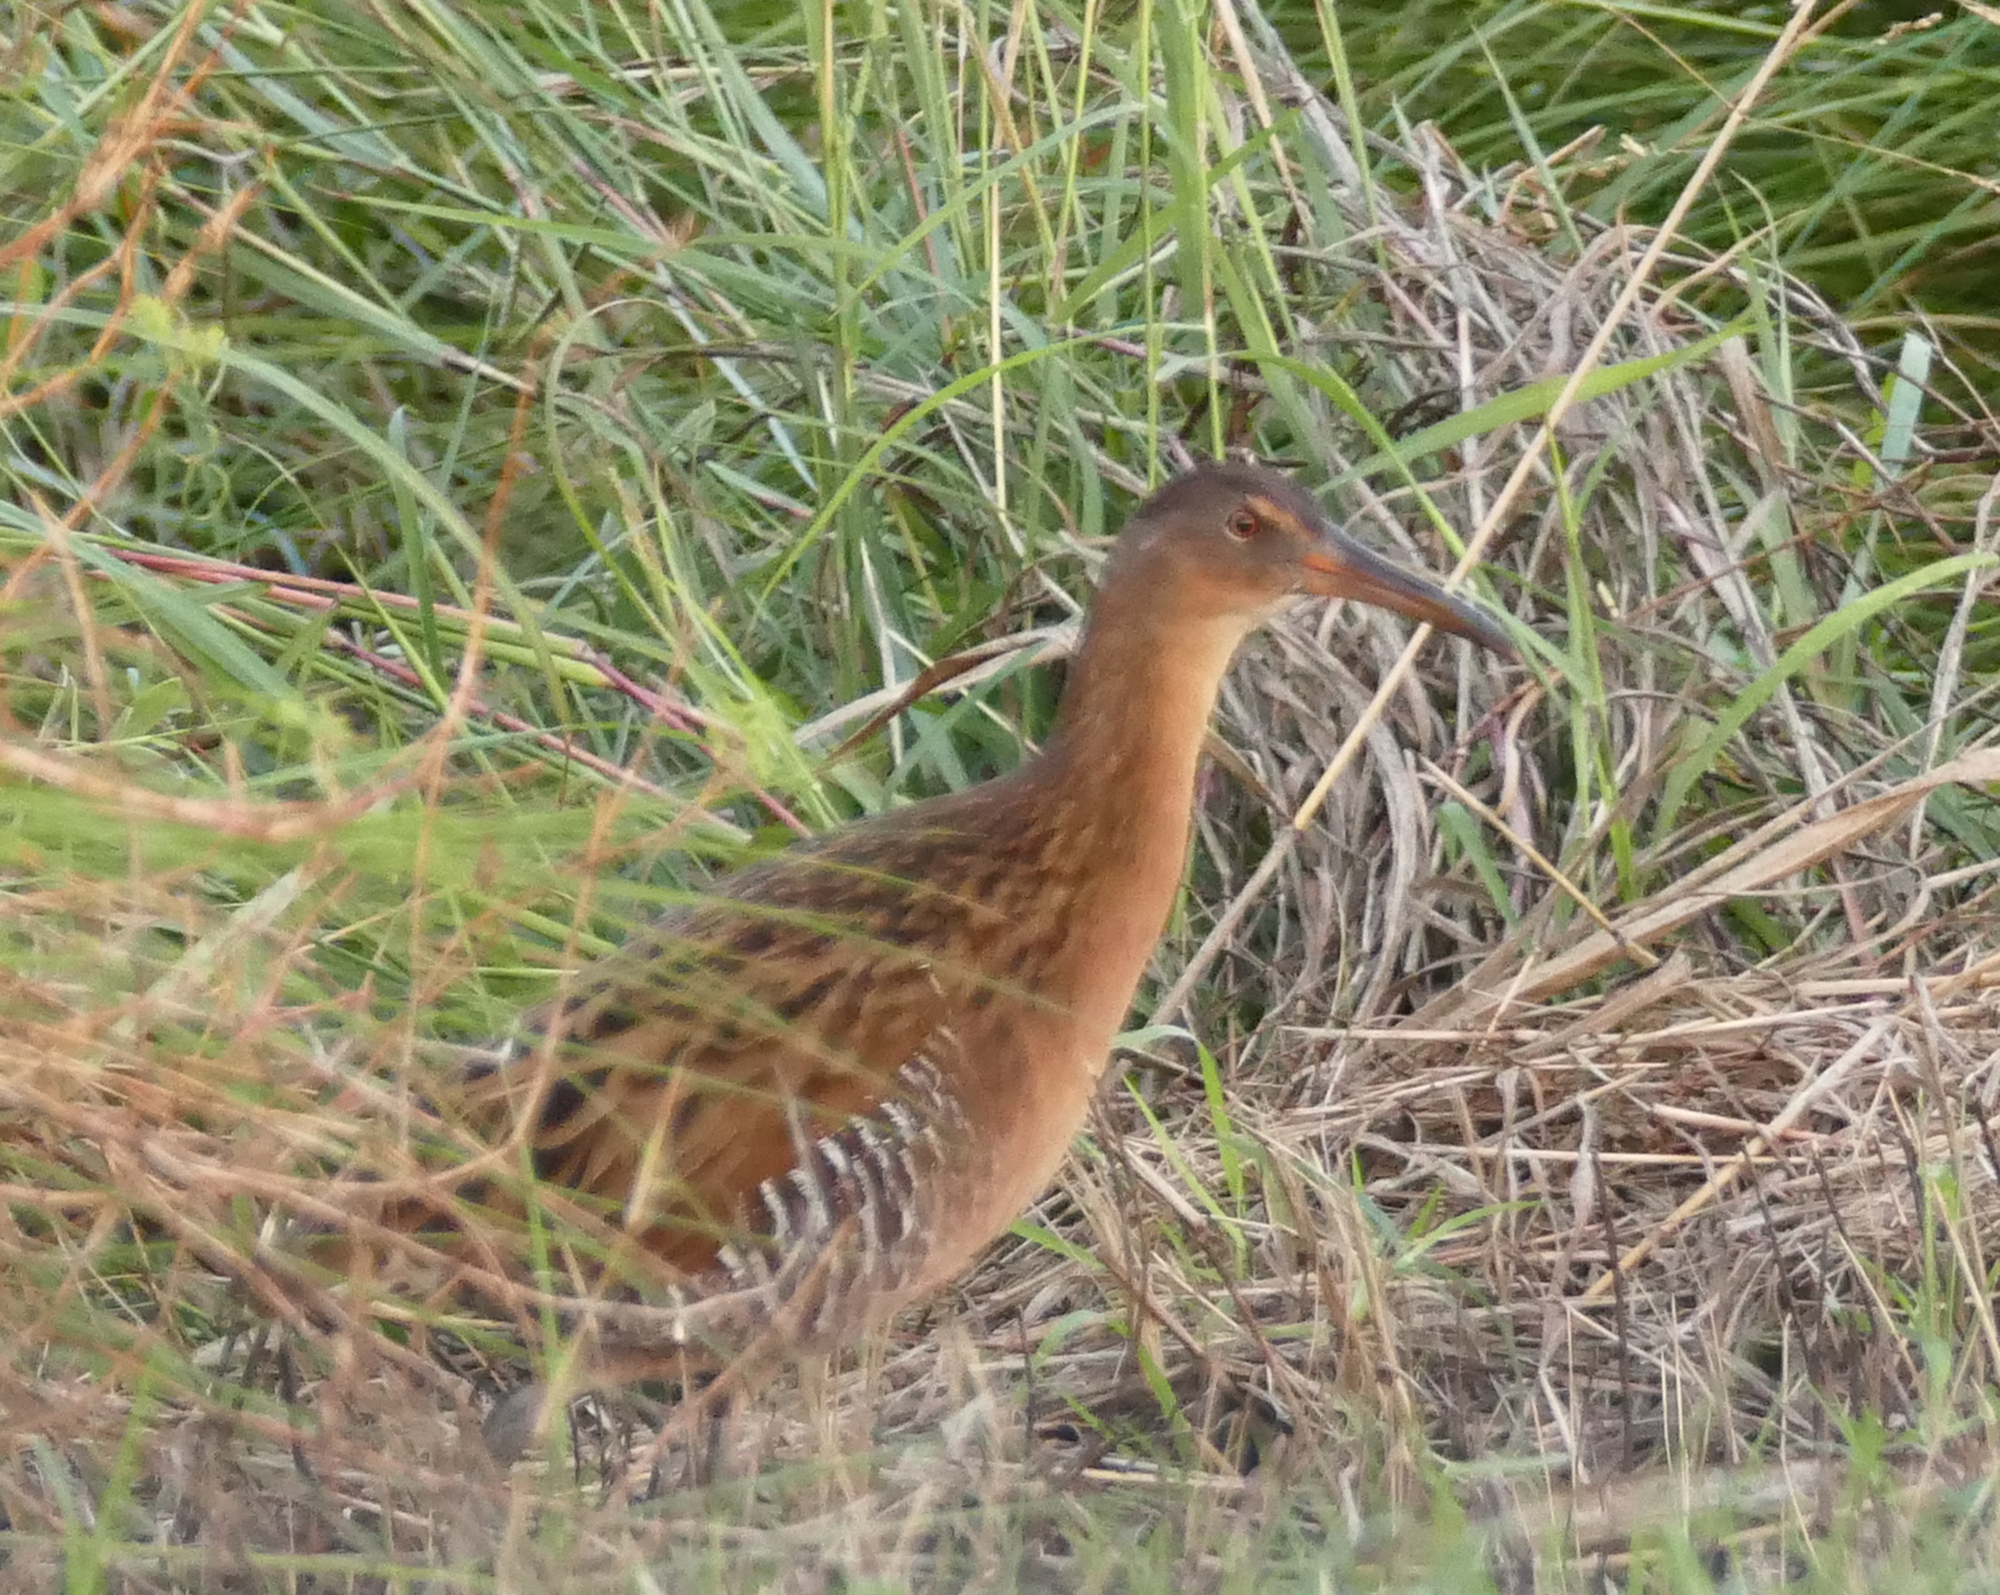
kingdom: Animalia
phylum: Chordata
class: Aves
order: Gruiformes
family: Rallidae
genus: Rallus
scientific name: Rallus elegans
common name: King rail
